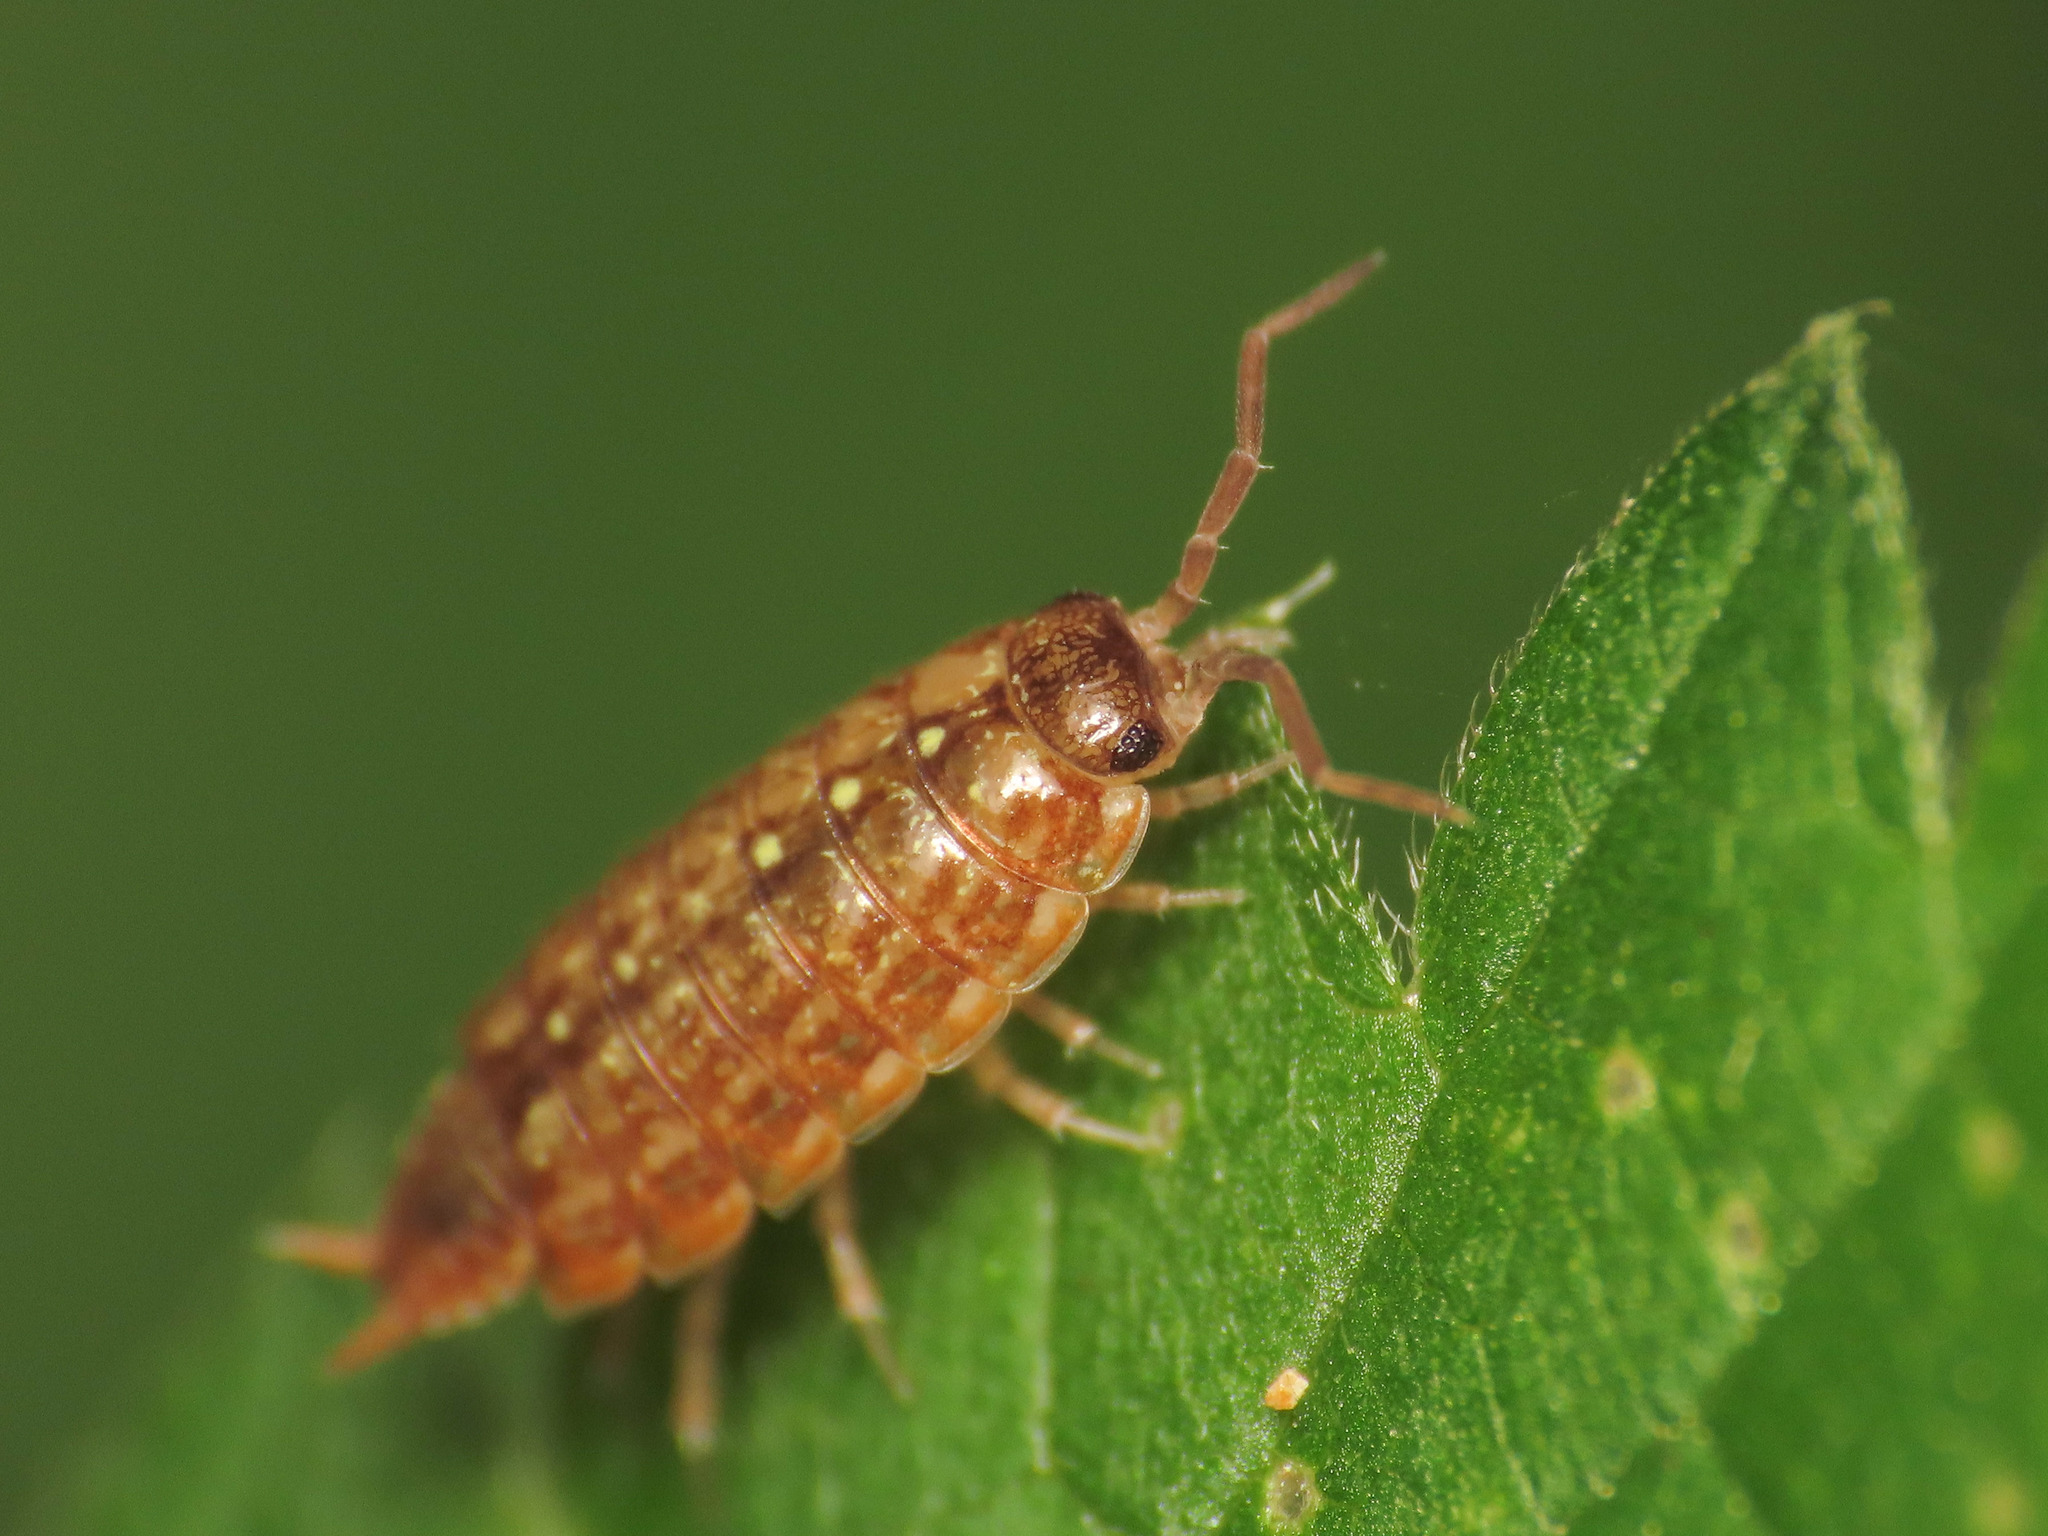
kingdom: Animalia
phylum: Arthropoda
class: Malacostraca
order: Isopoda
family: Philosciidae
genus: Philoscia
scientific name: Philoscia affinis
